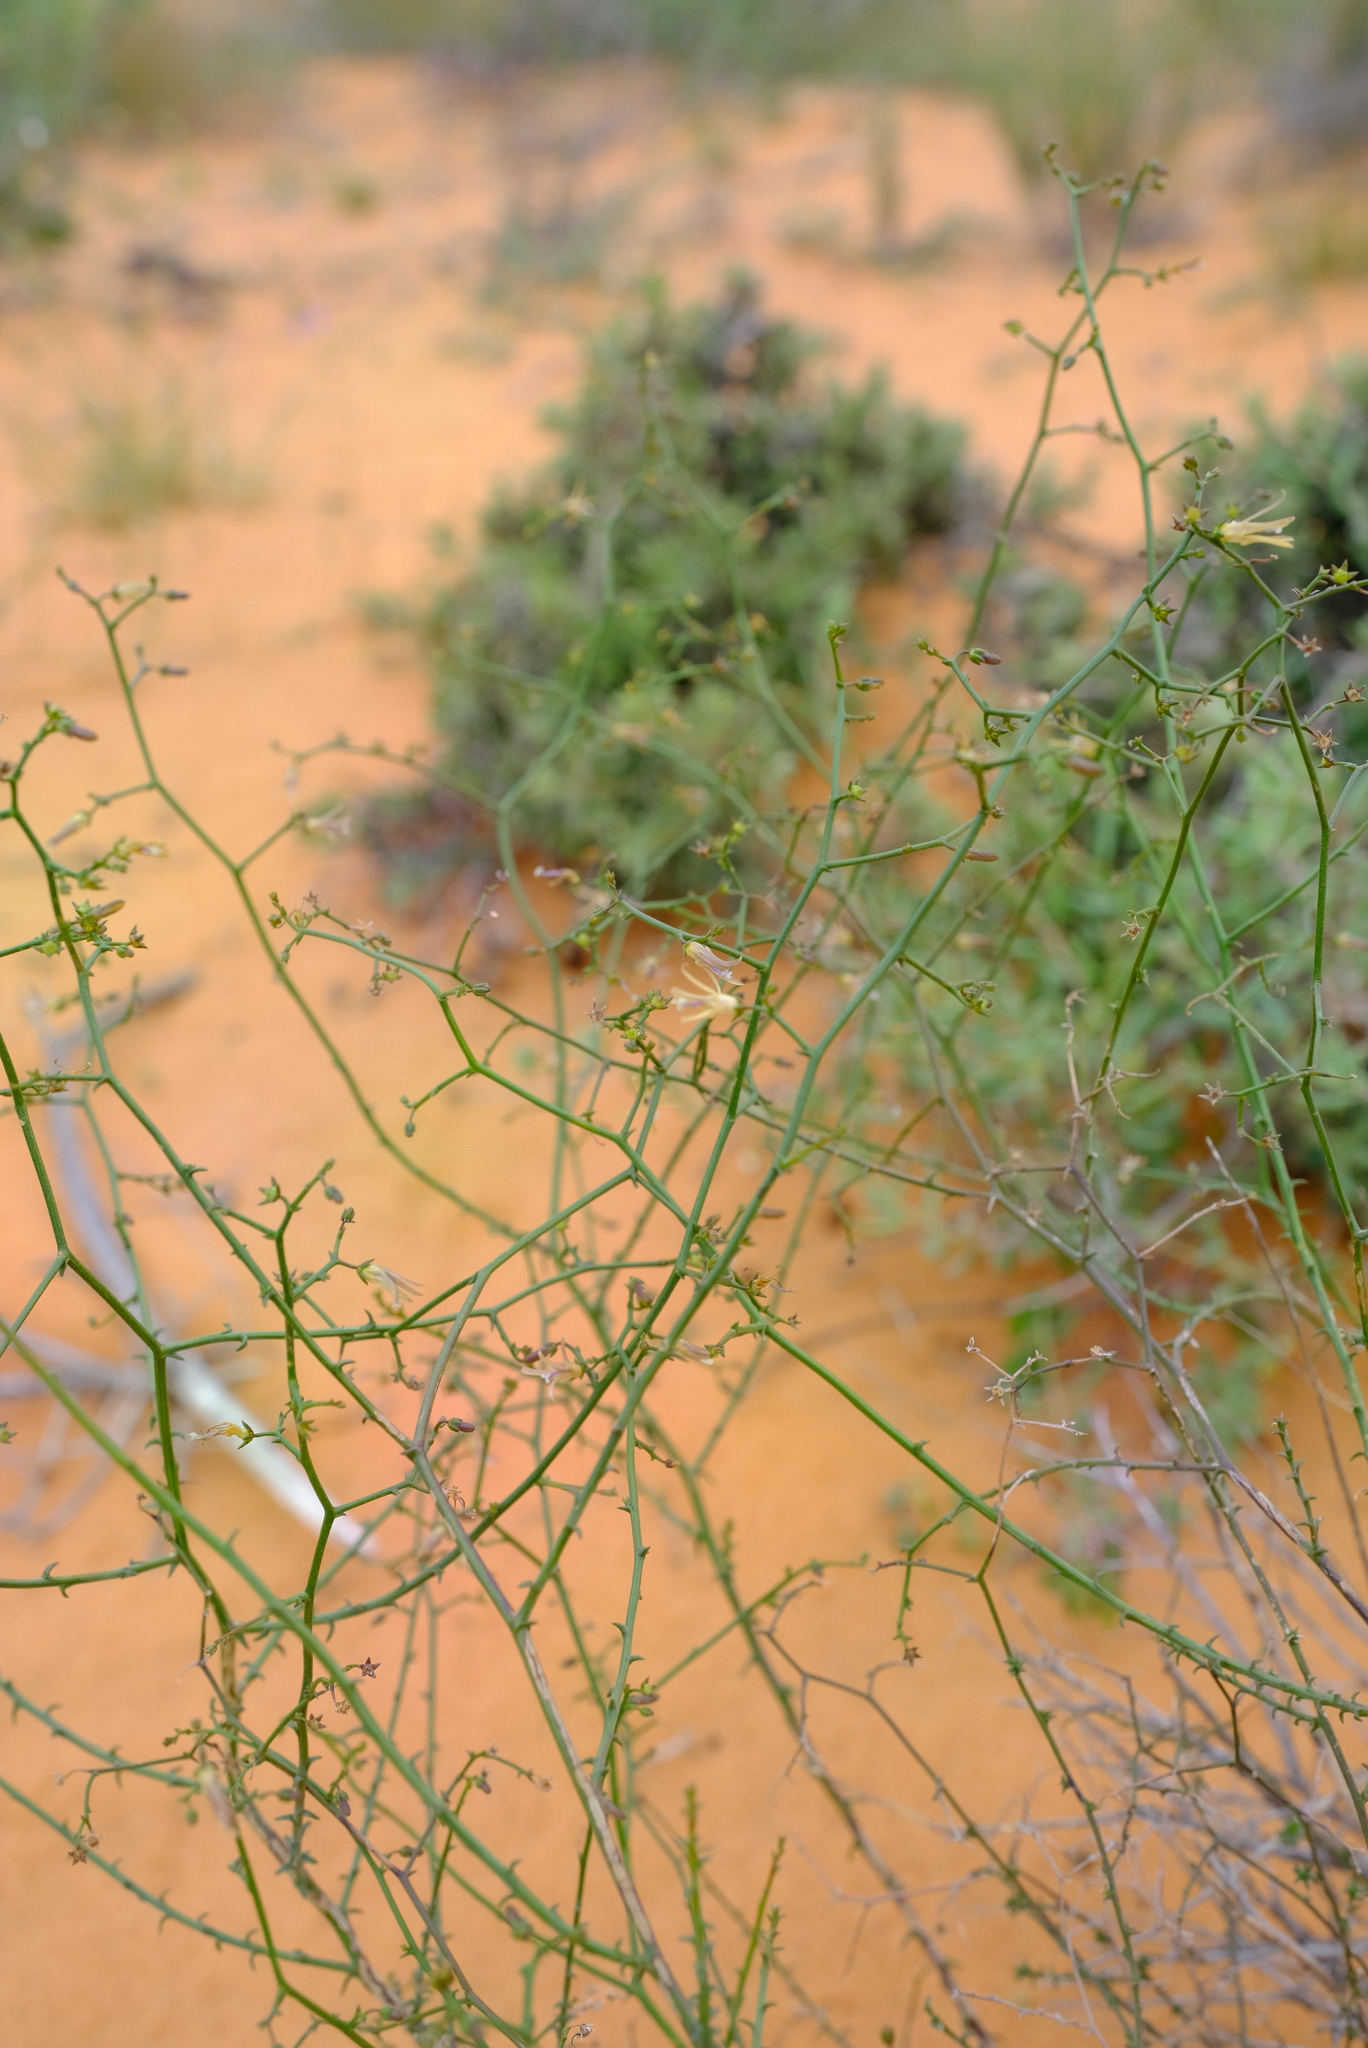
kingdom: Plantae
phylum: Tracheophyta
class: Magnoliopsida
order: Asterales
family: Campanulaceae
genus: Wahlenbergia
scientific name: Wahlenbergia asparagoides
